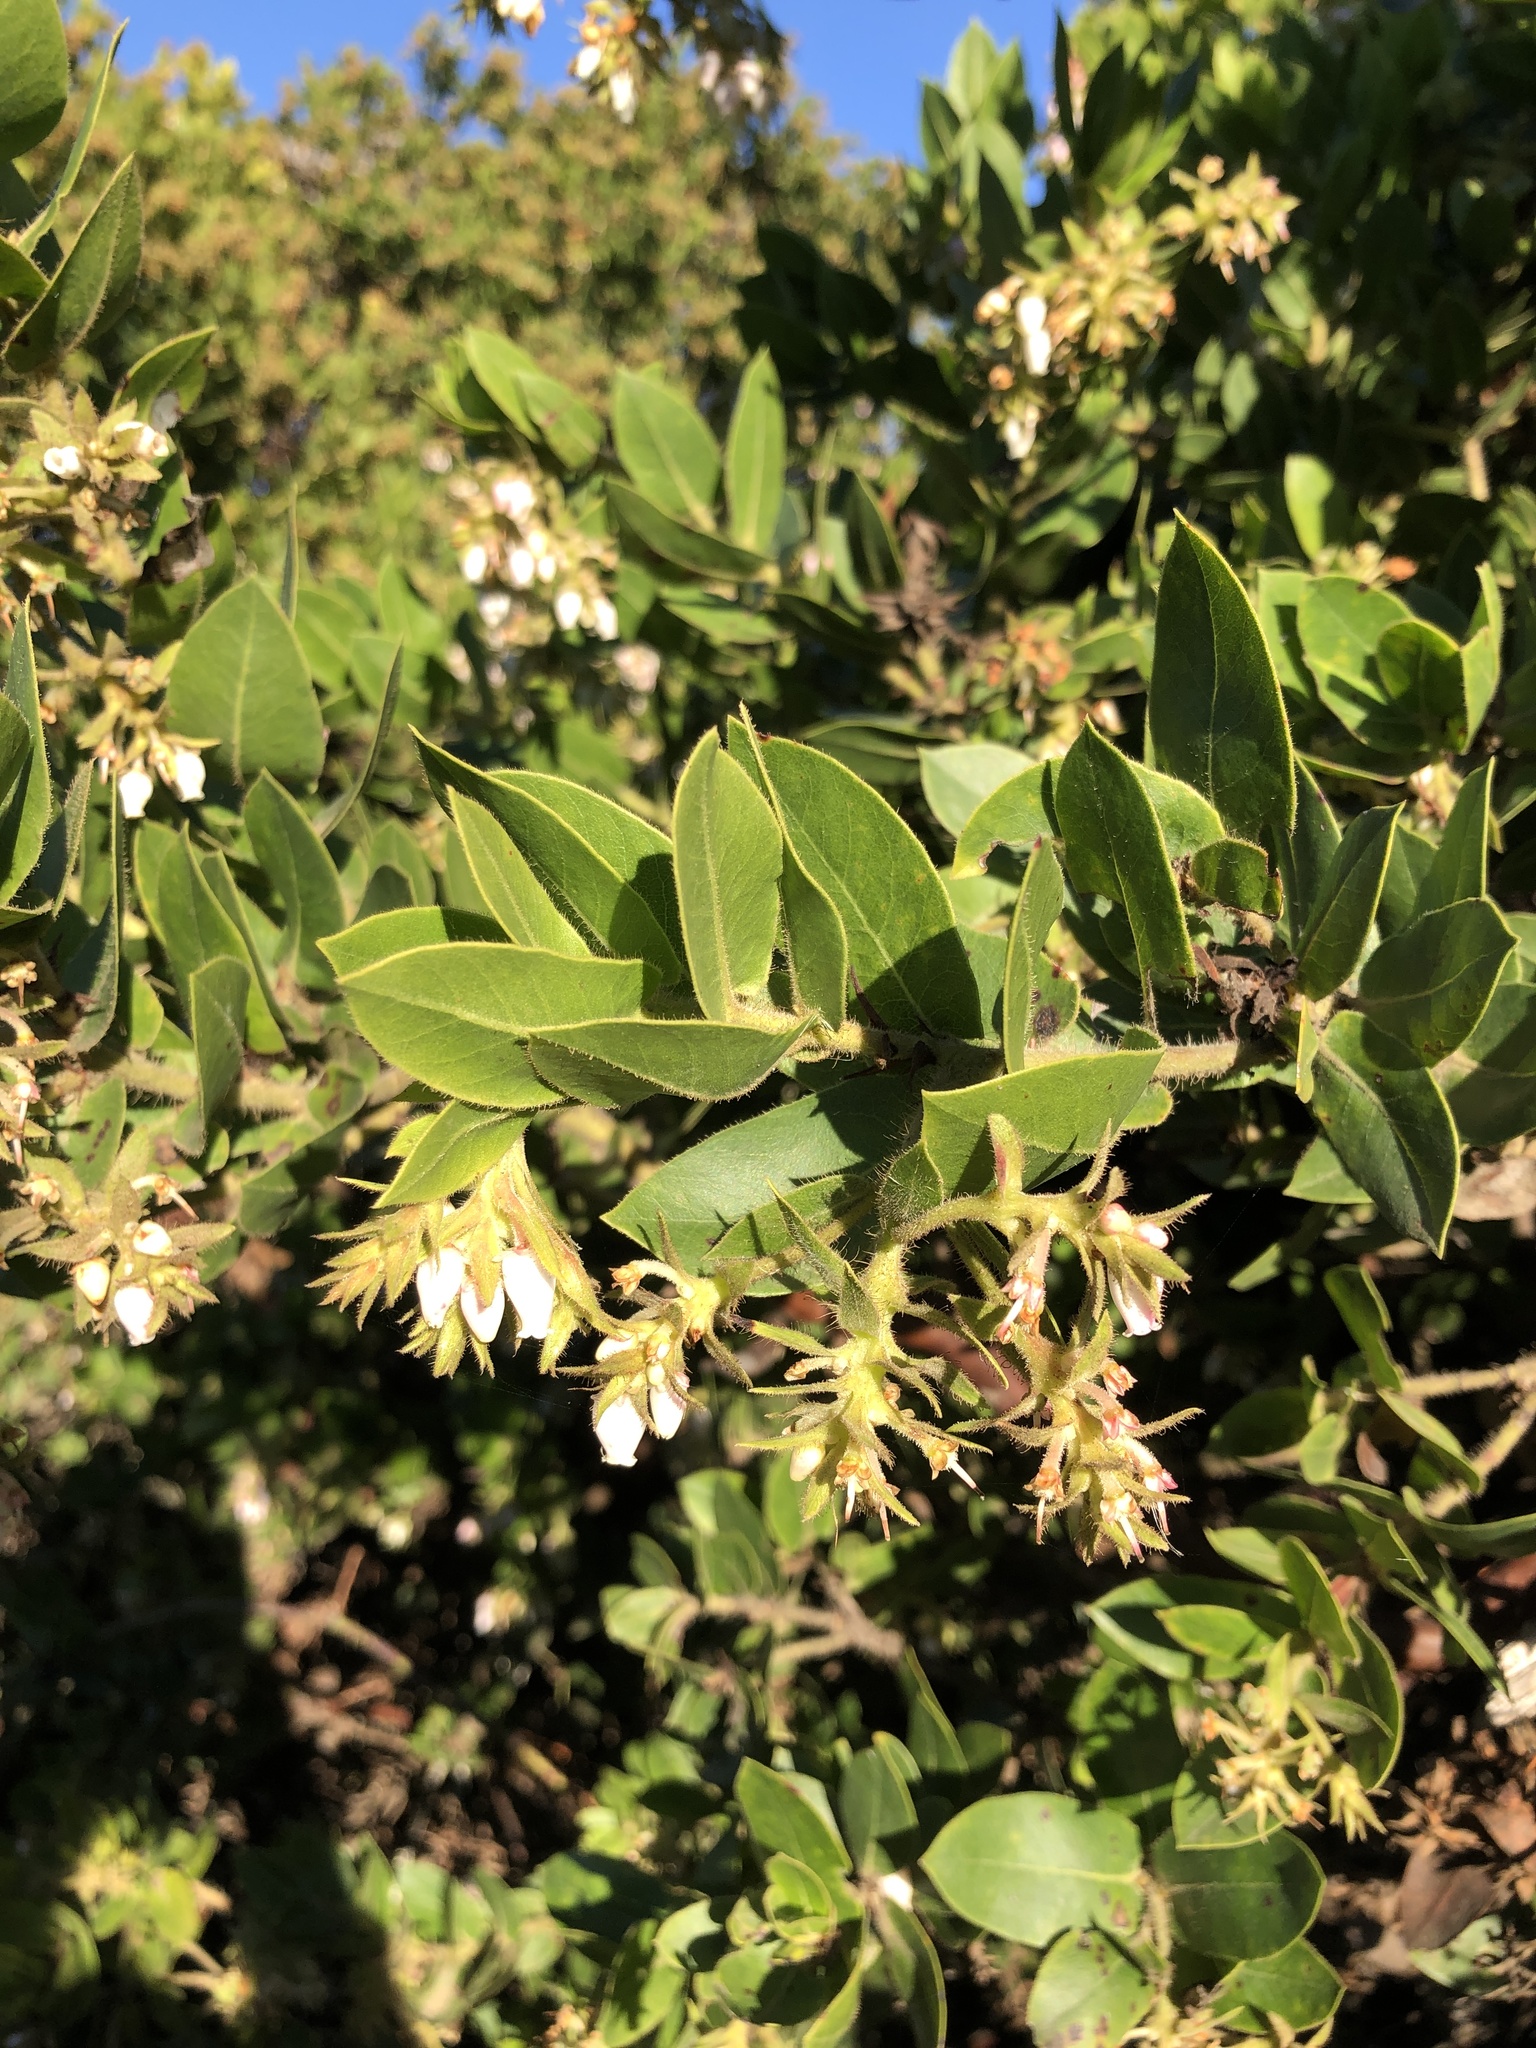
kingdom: Plantae
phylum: Tracheophyta
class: Magnoliopsida
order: Ericales
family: Ericaceae
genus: Arctostaphylos
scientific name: Arctostaphylos montaraensis
